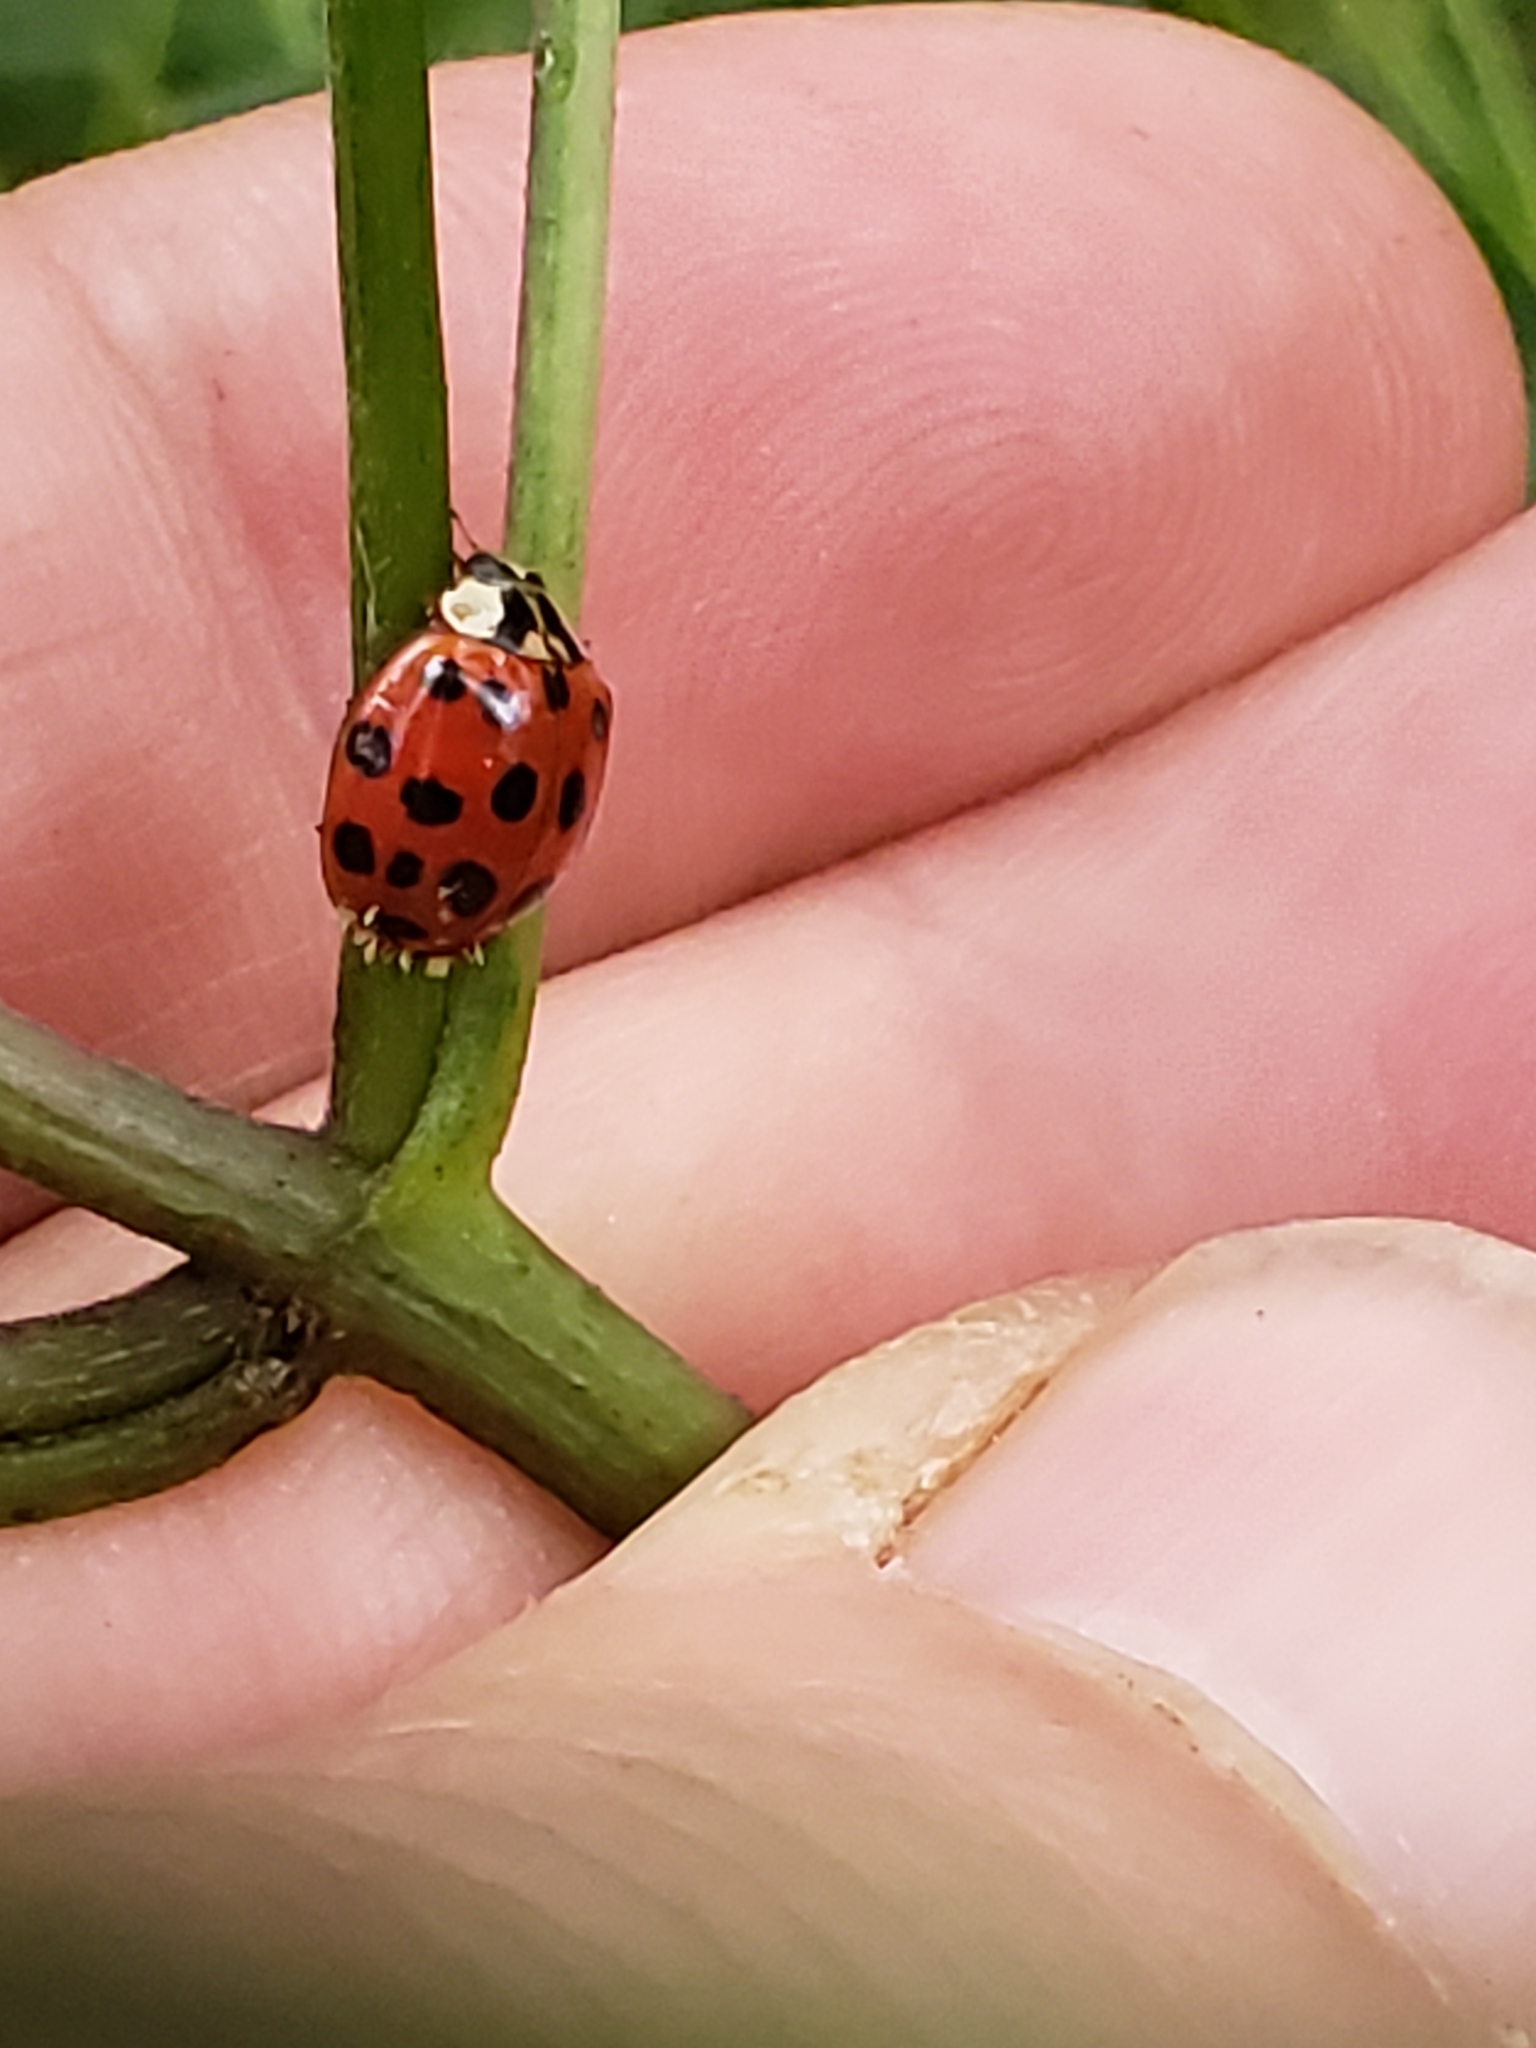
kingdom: Animalia
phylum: Arthropoda
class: Insecta
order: Coleoptera
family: Coccinellidae
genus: Harmonia
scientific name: Harmonia axyridis
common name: Harlequin ladybird
